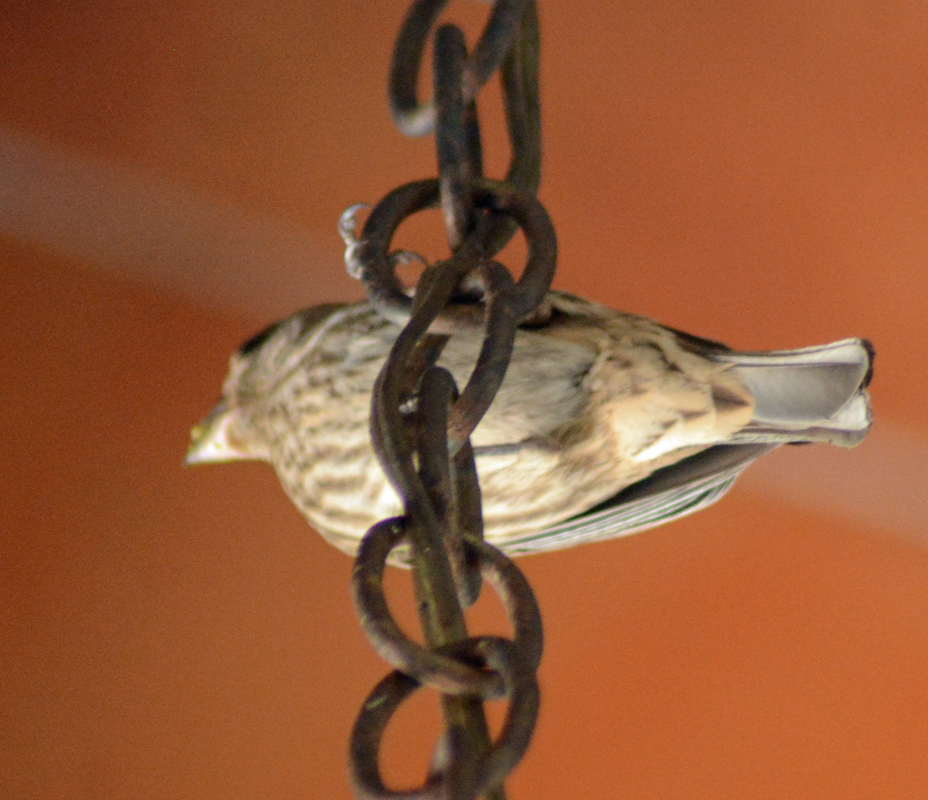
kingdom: Animalia
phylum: Chordata
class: Aves
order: Passeriformes
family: Fringillidae
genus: Haemorhous
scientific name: Haemorhous mexicanus
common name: House finch
